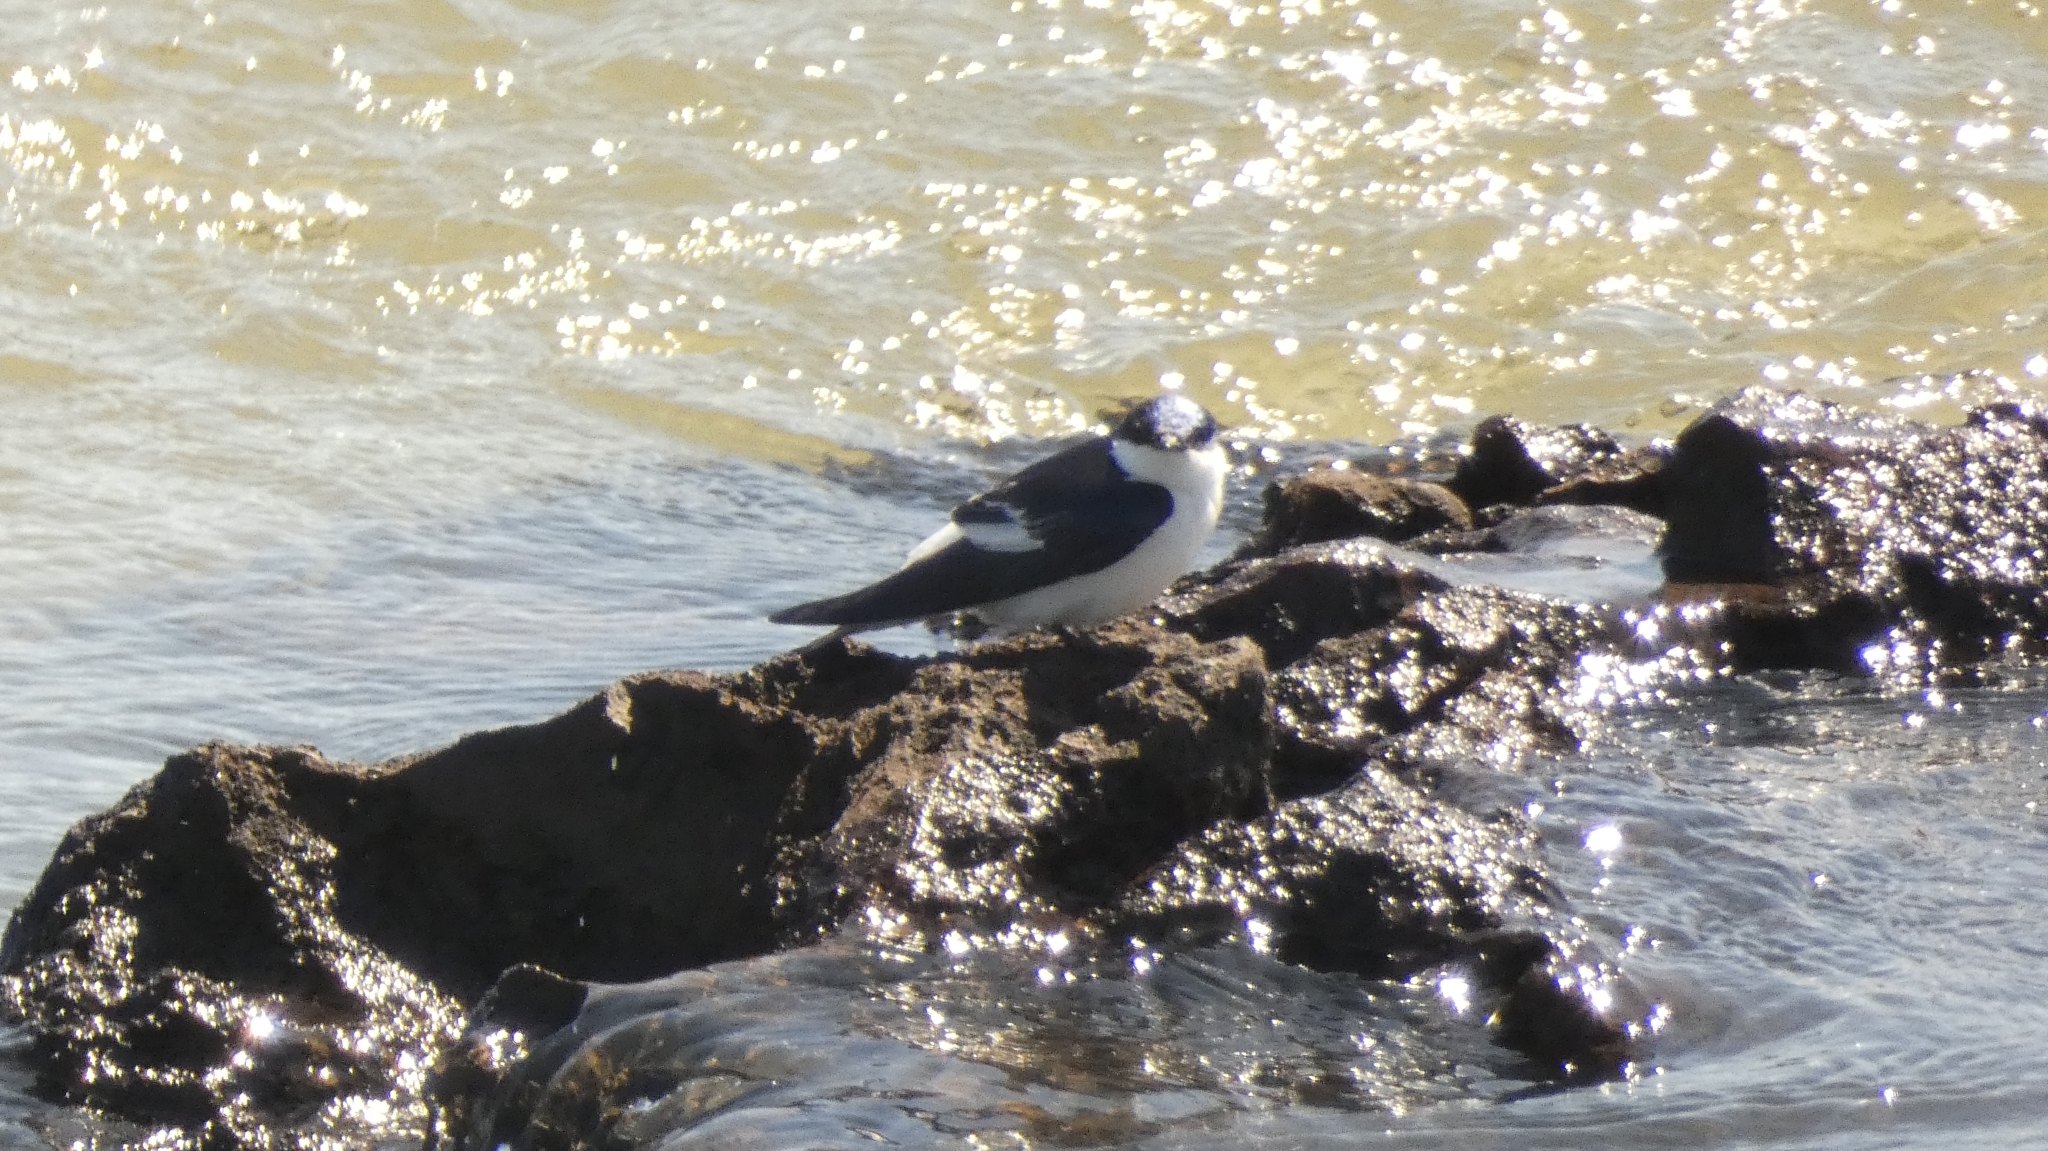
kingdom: Animalia
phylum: Chordata
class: Aves
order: Passeriformes
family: Hirundinidae
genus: Tachycineta
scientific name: Tachycineta albiventer
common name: White-winged swallow
